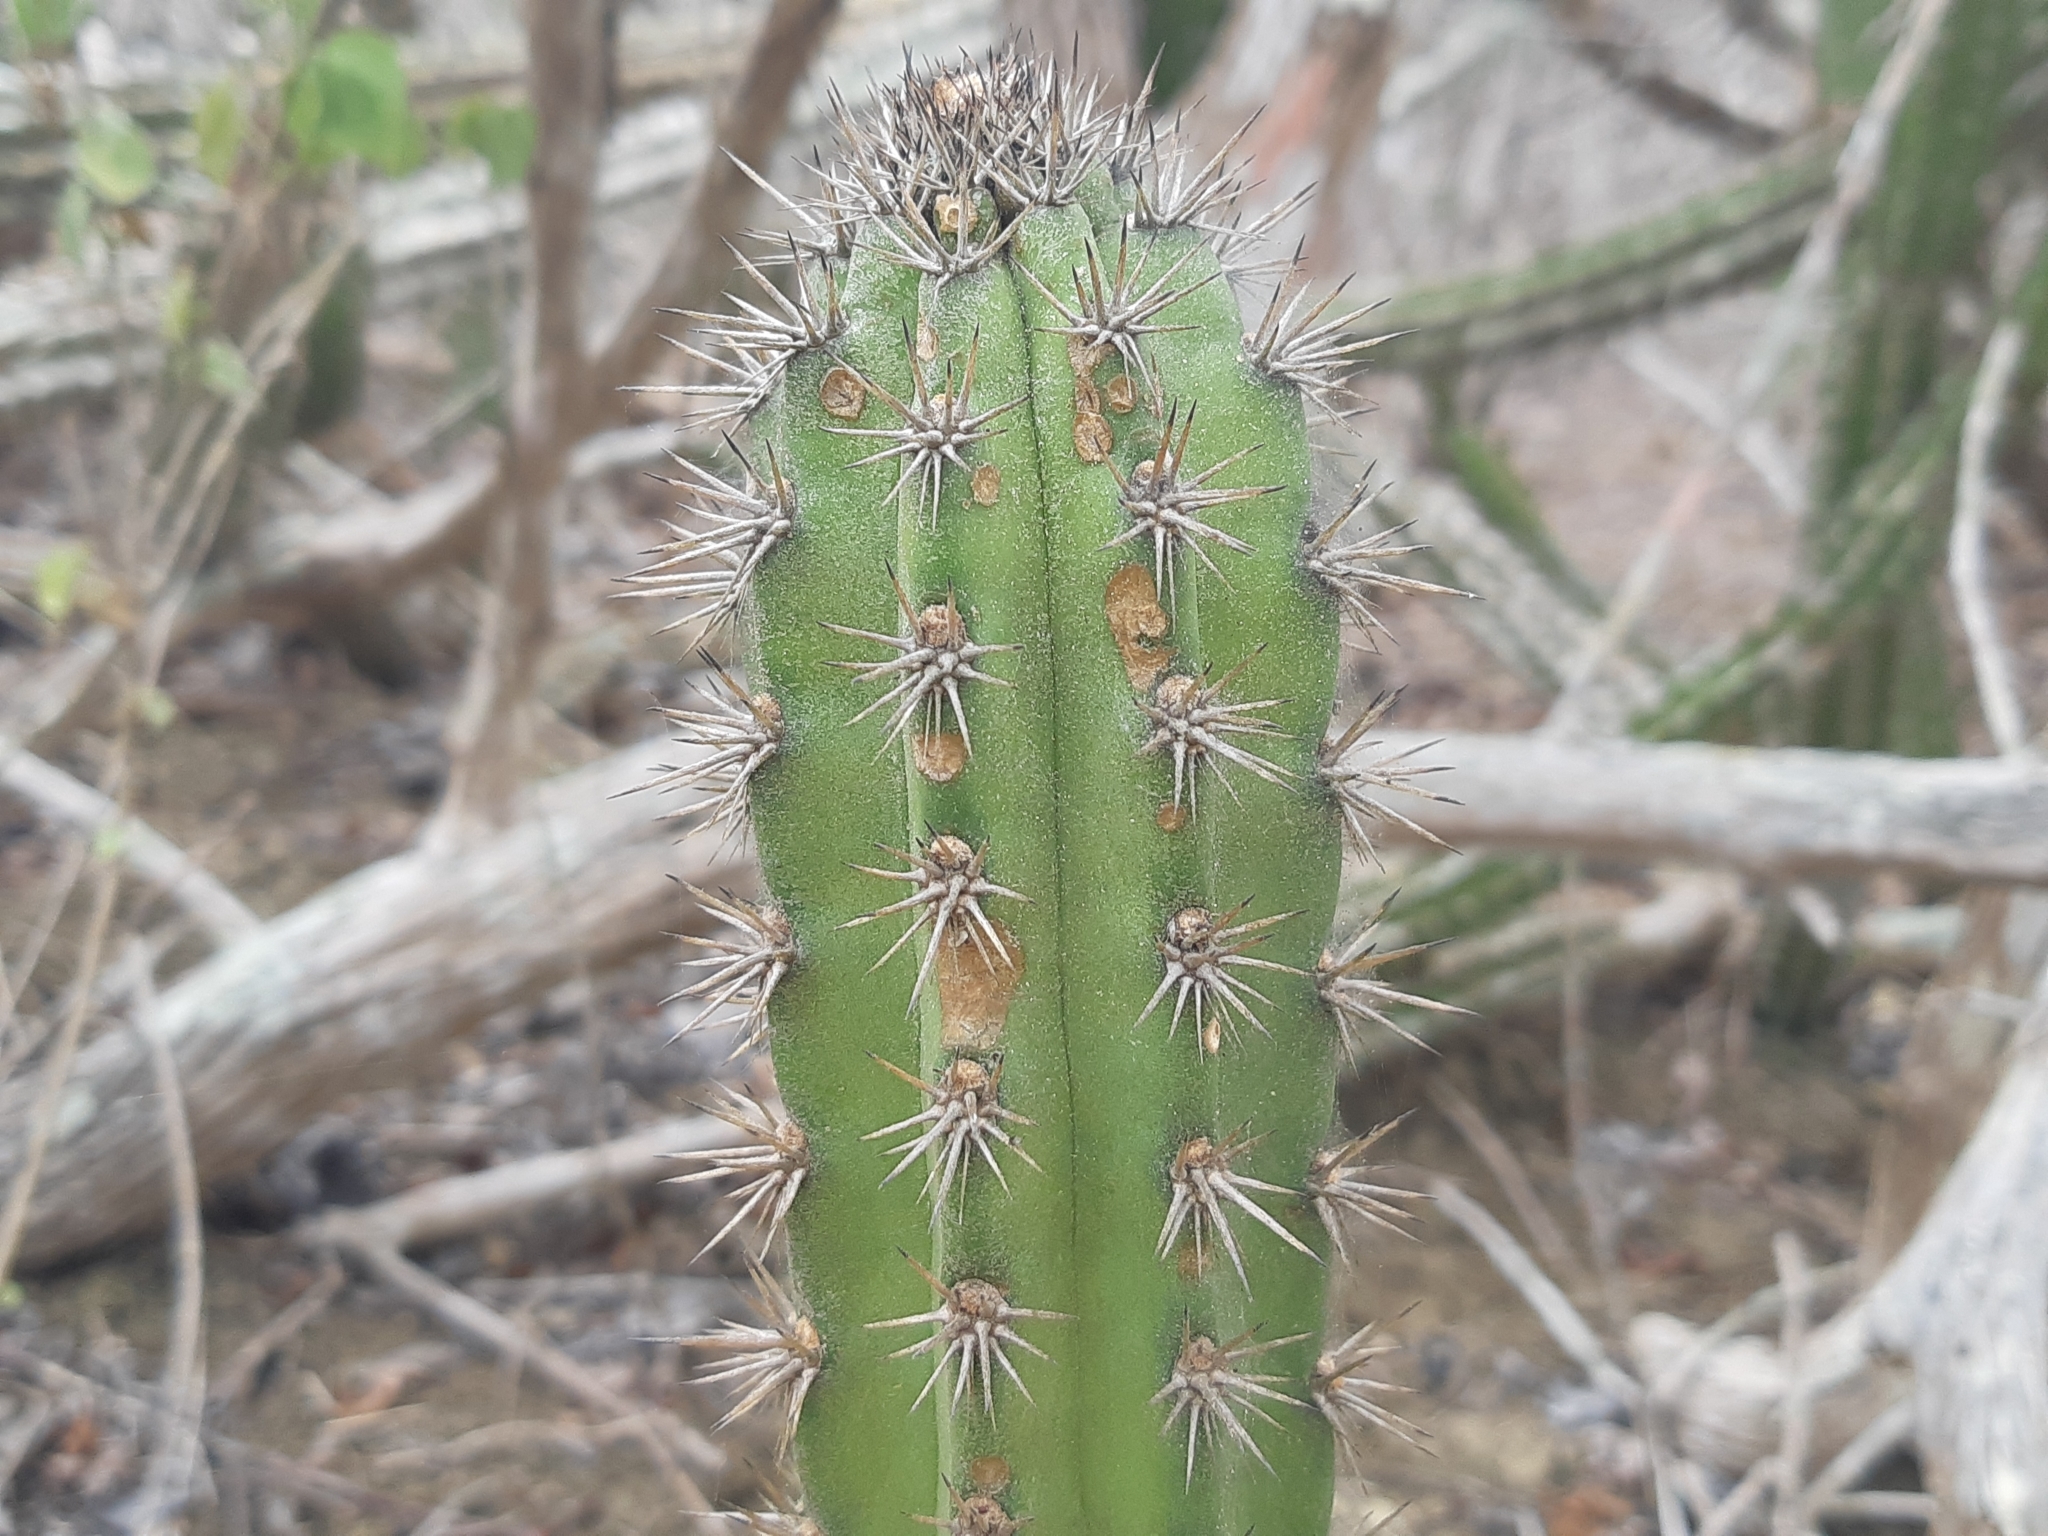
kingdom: Plantae
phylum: Tracheophyta
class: Magnoliopsida
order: Caryophyllales
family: Cactaceae
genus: Armatocereus
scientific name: Armatocereus cartwrightianus
